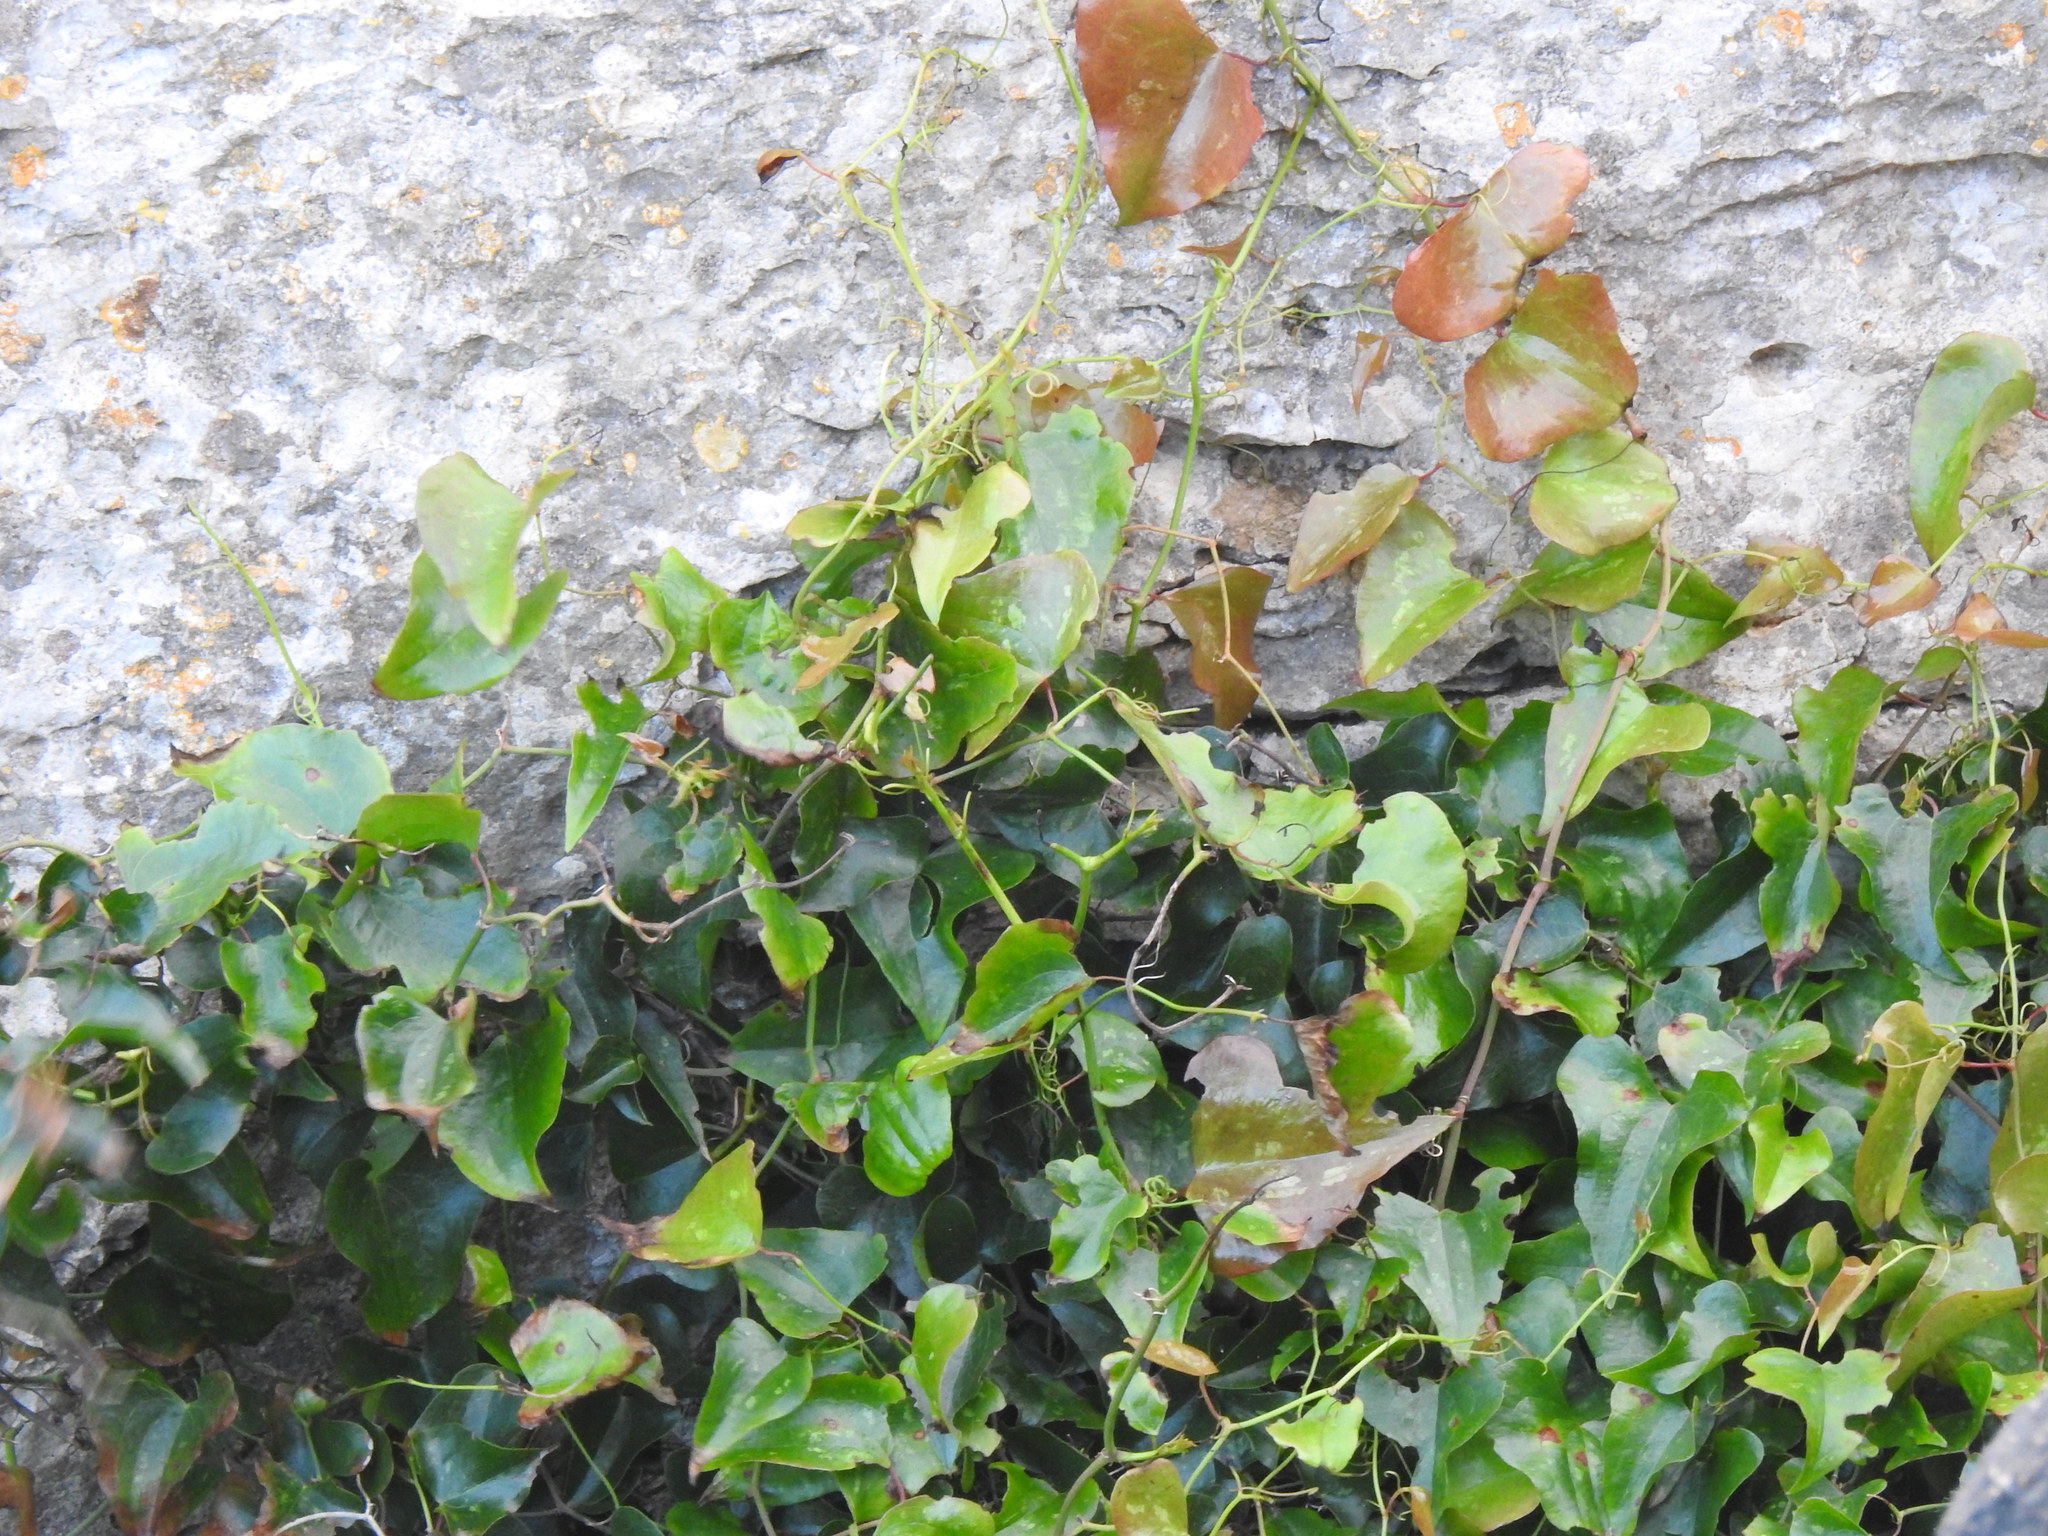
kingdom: Plantae
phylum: Tracheophyta
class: Liliopsida
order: Liliales
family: Smilacaceae
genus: Smilax
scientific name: Smilax aspera
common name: Common smilax
